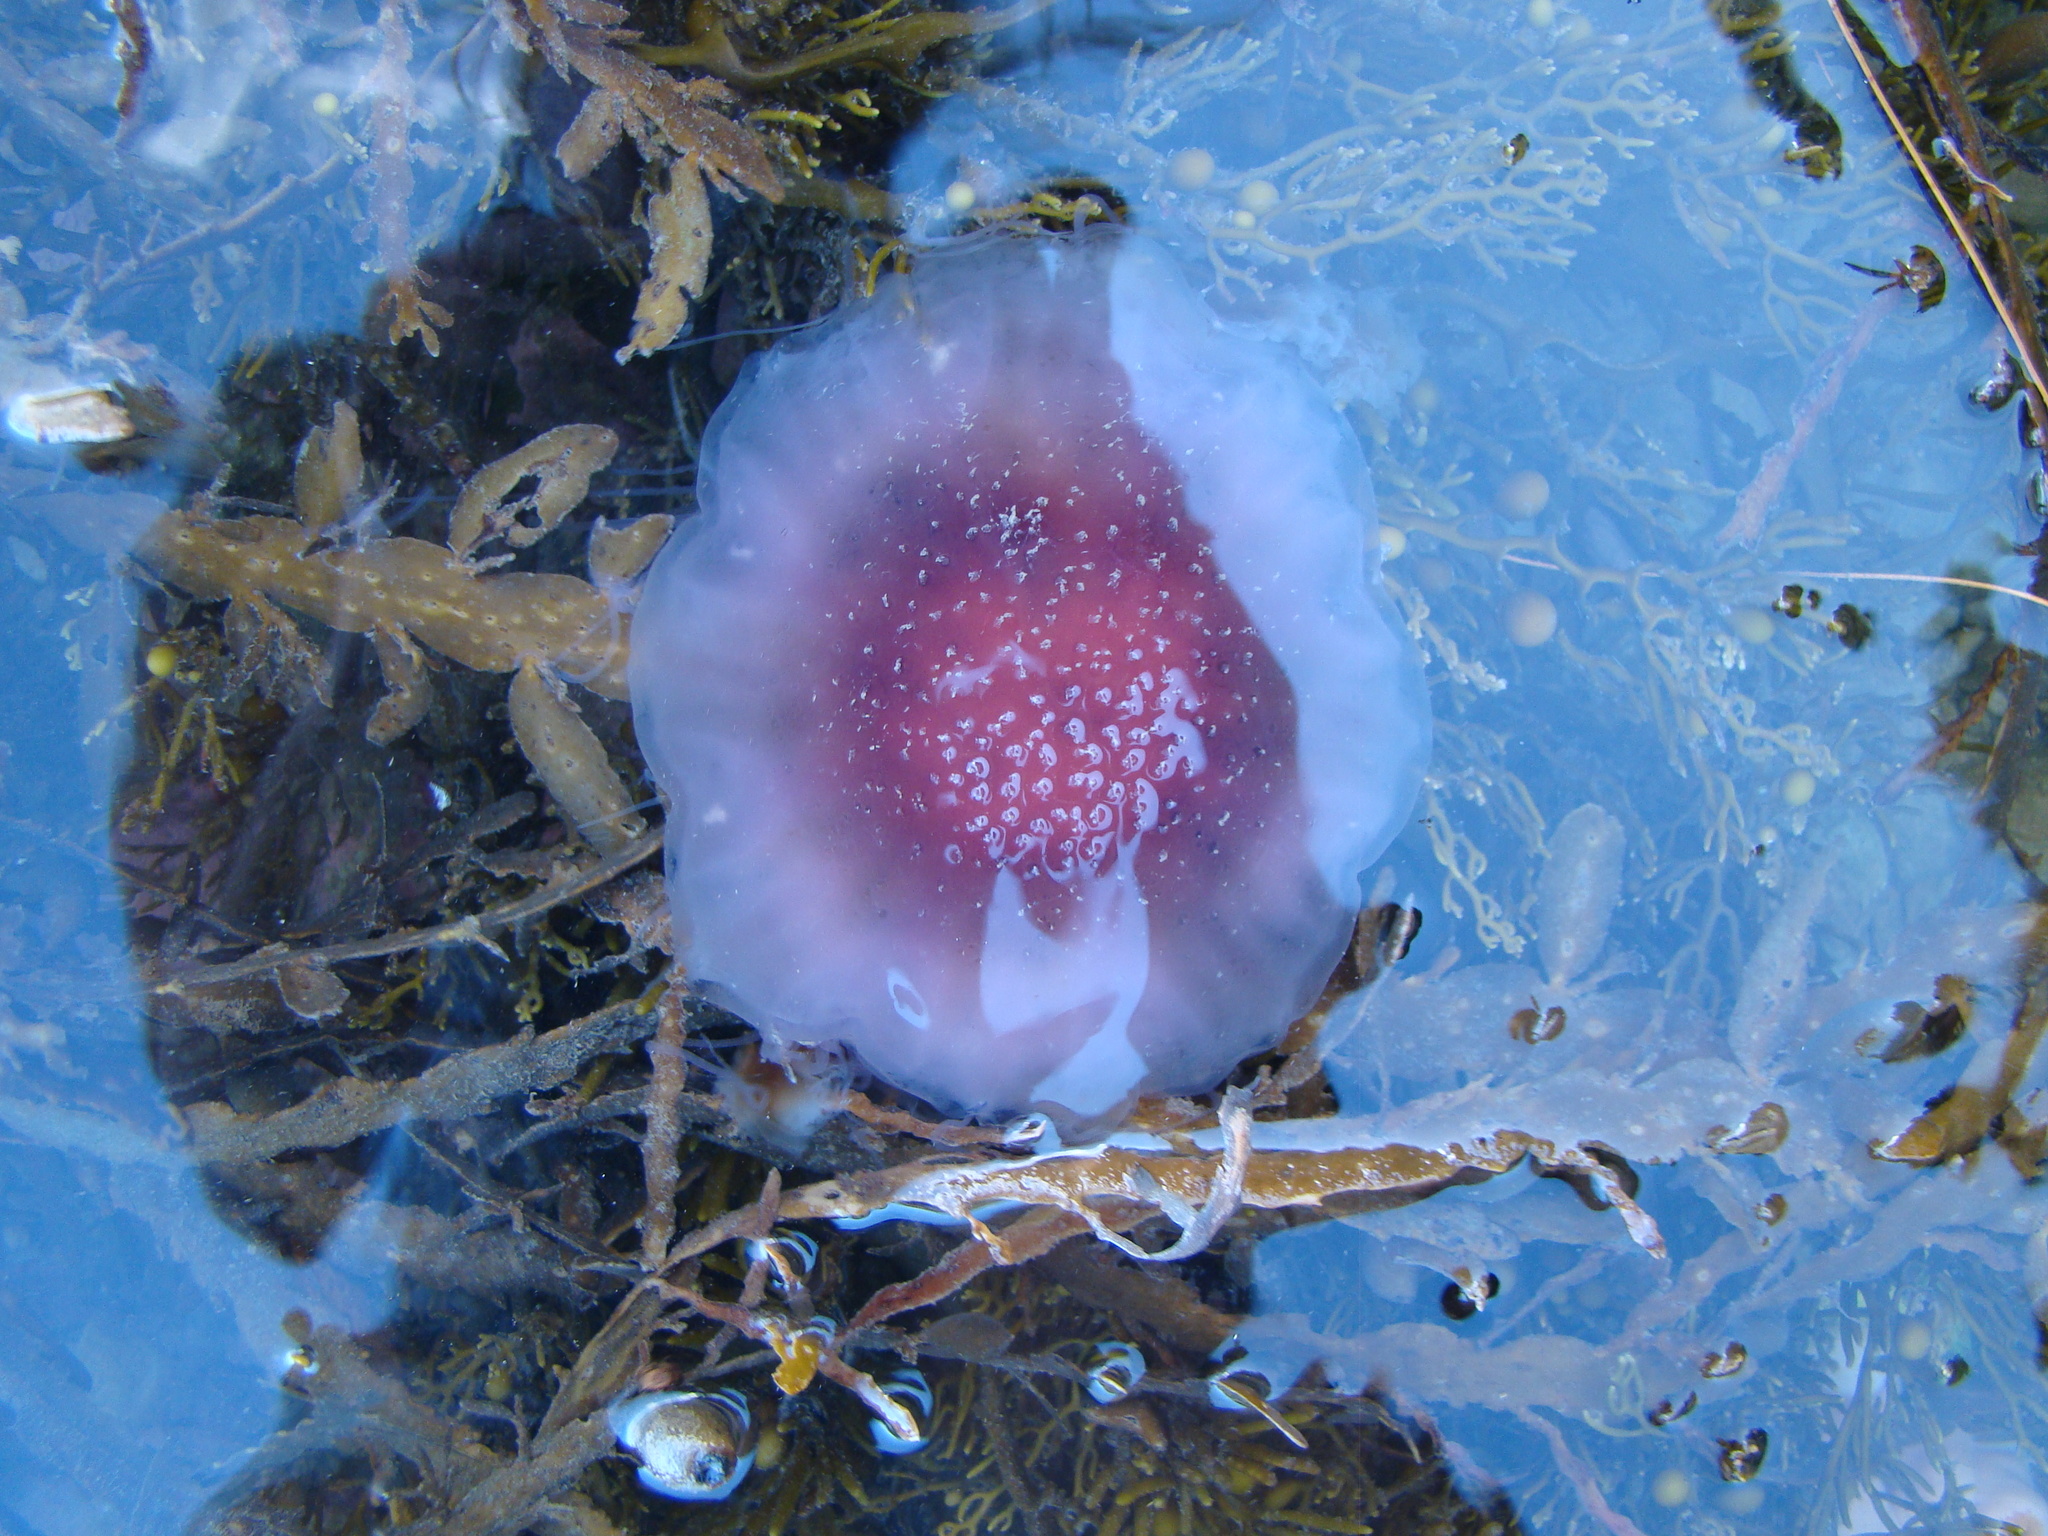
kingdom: Animalia
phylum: Cnidaria
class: Scyphozoa
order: Semaeostomeae
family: Cyaneidae
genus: Cyanea
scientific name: Cyanea
